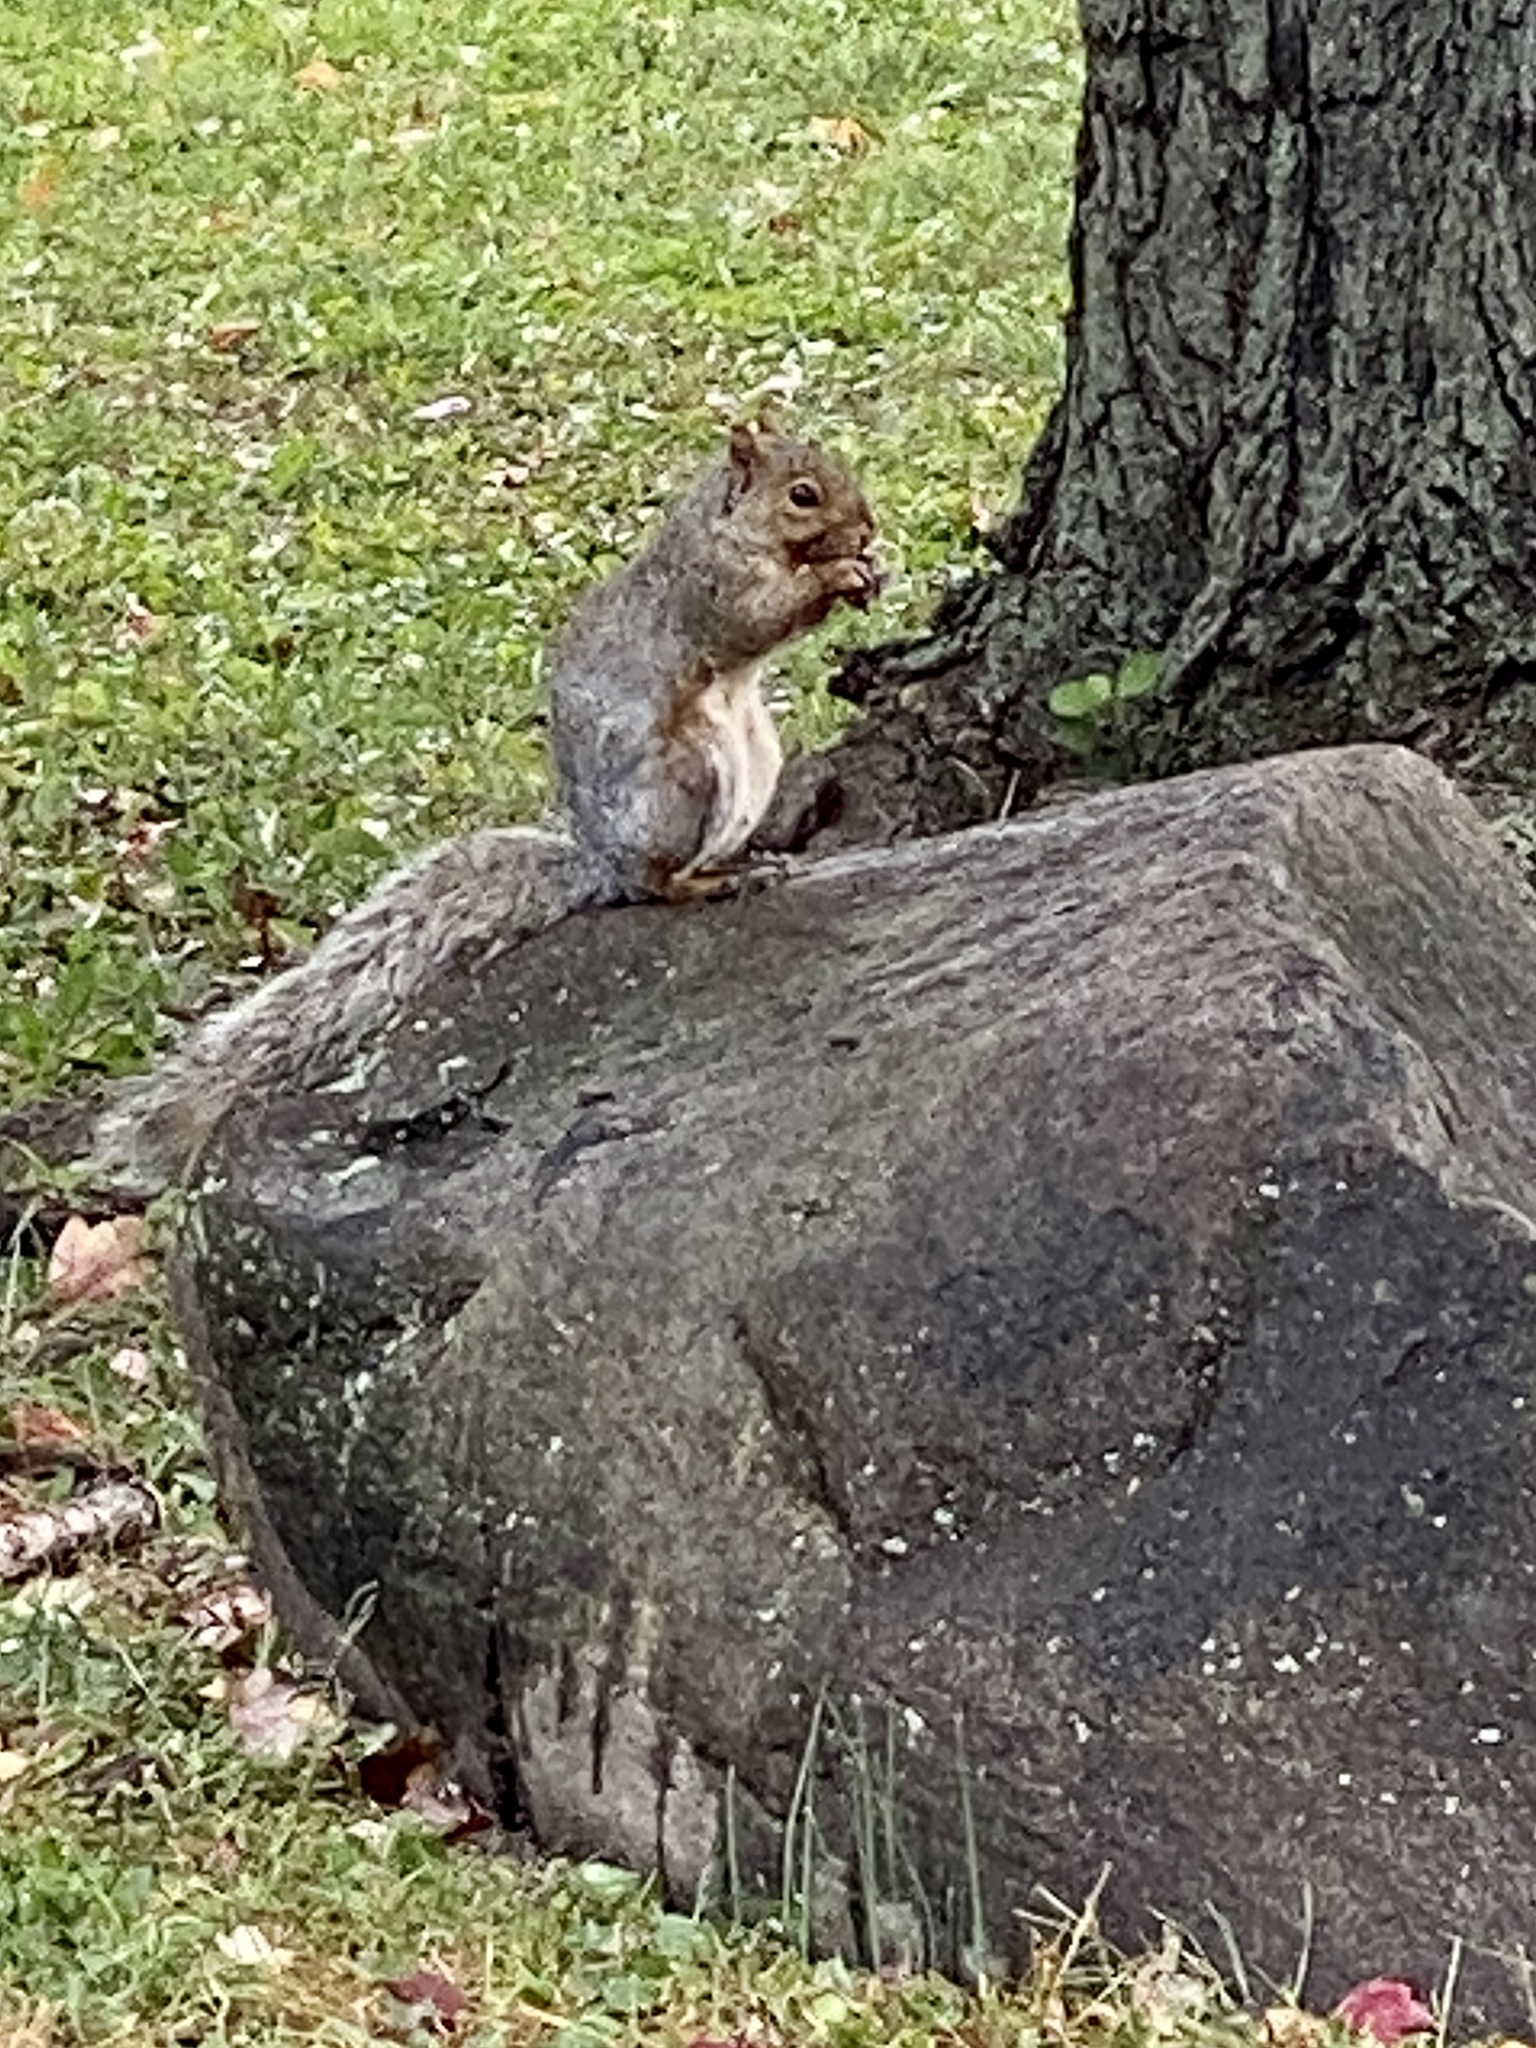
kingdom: Animalia
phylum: Chordata
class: Mammalia
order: Rodentia
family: Sciuridae
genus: Sciurus
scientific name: Sciurus carolinensis
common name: Eastern gray squirrel
